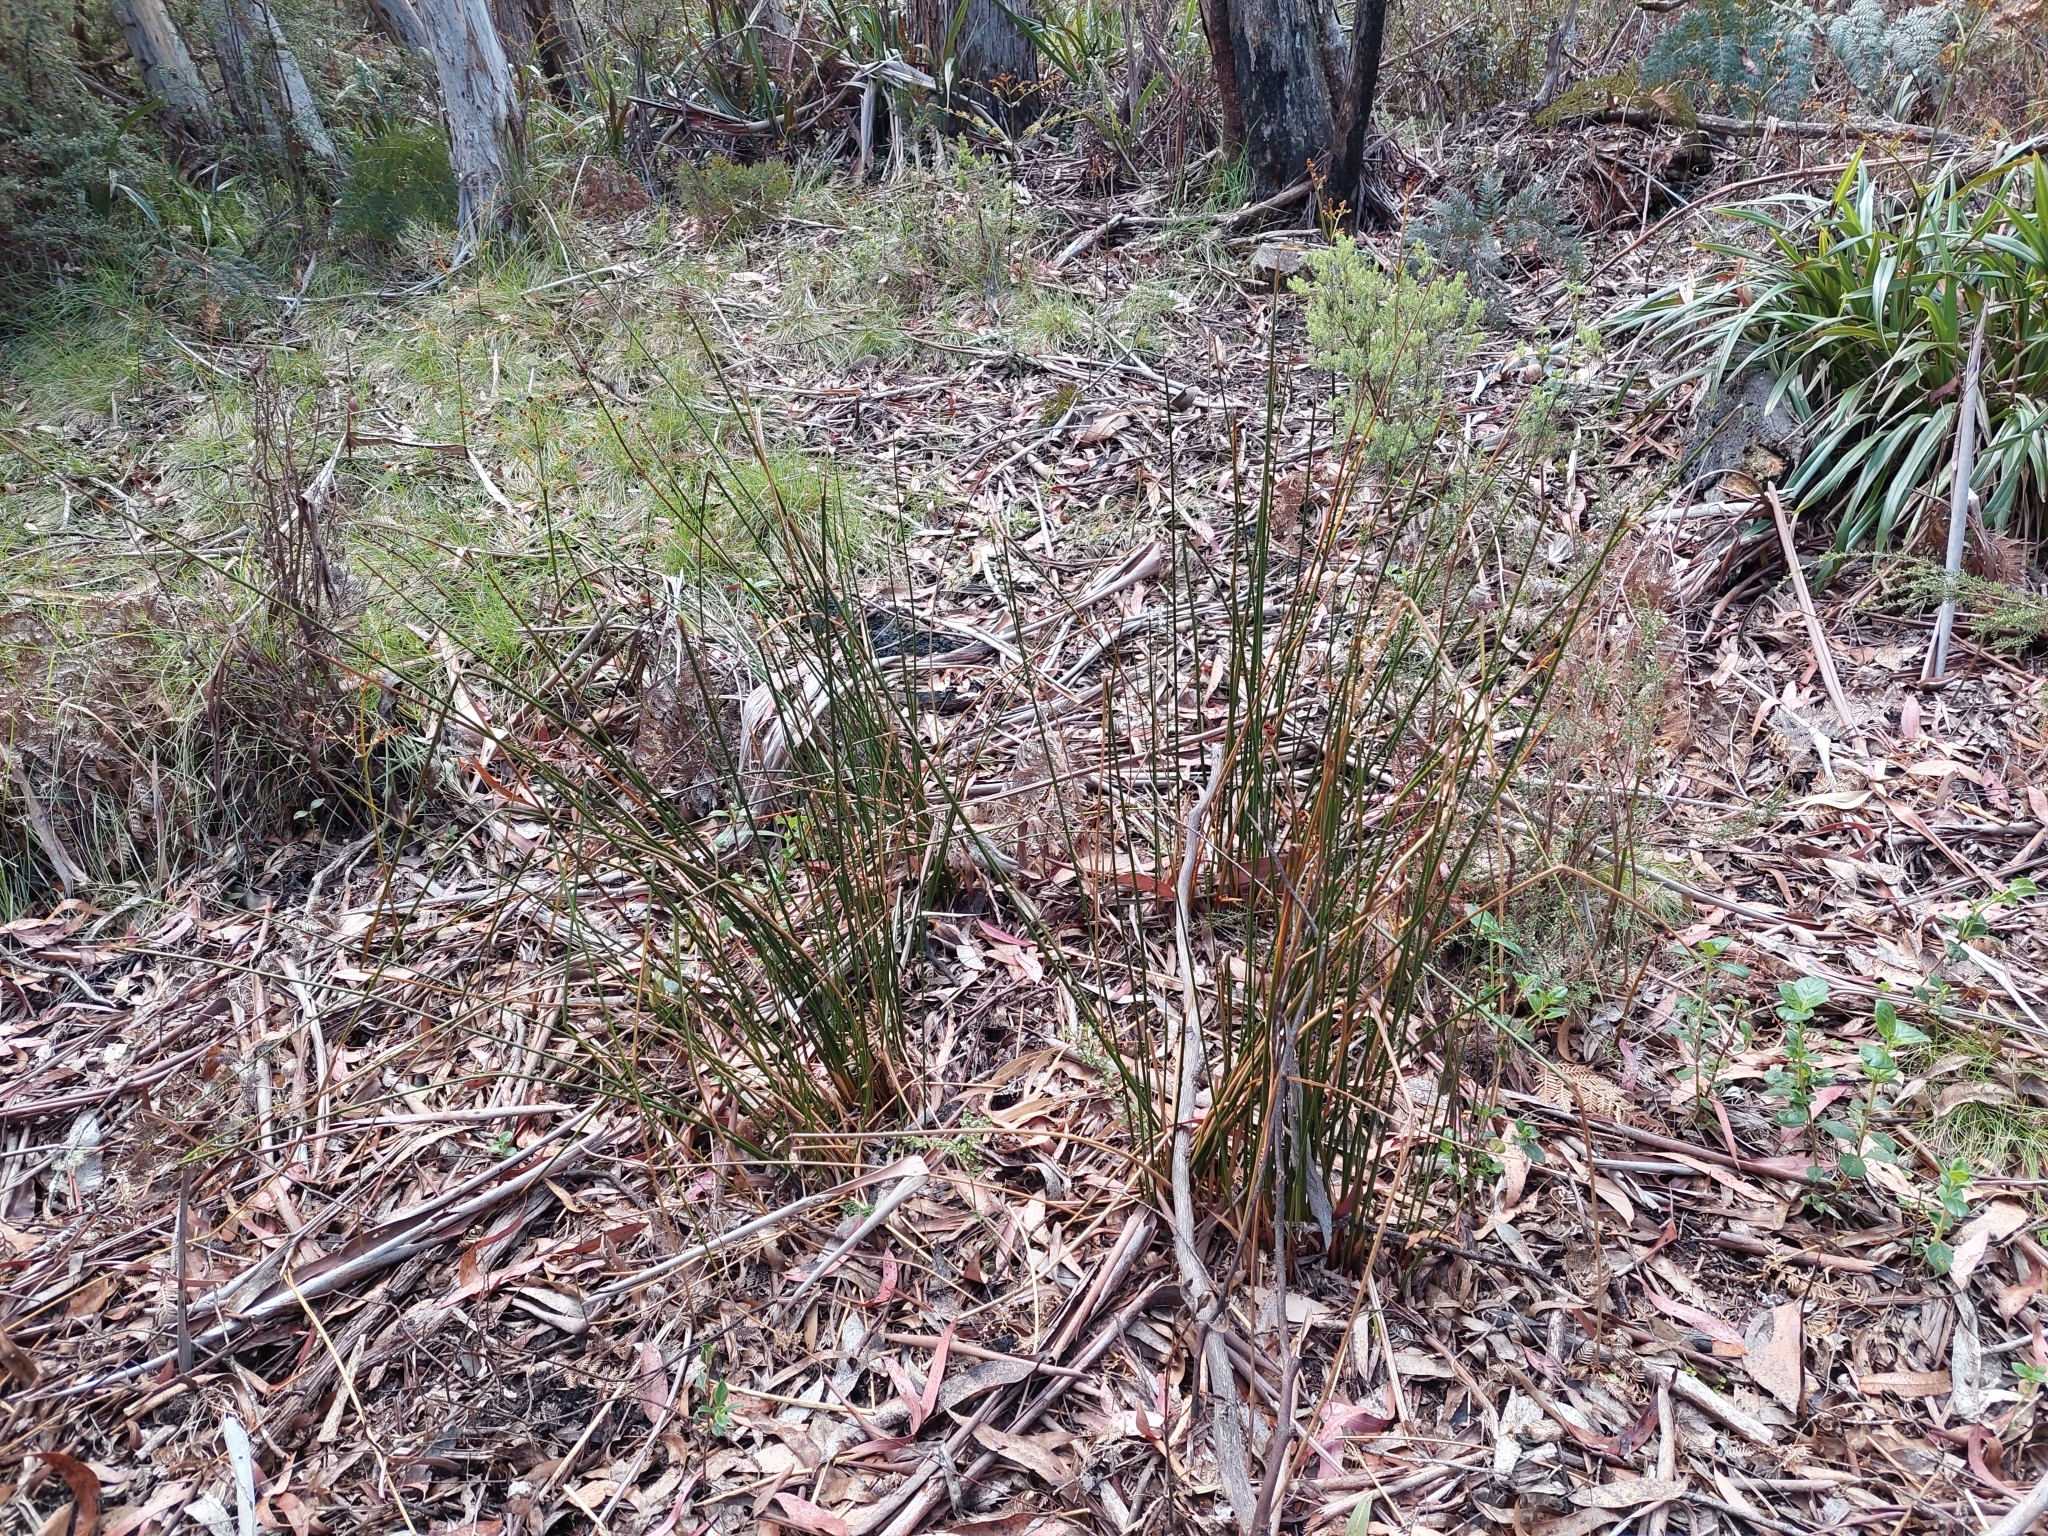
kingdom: Plantae
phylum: Tracheophyta
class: Liliopsida
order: Poales
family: Juncaceae
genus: Juncus
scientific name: Juncus alexandri
